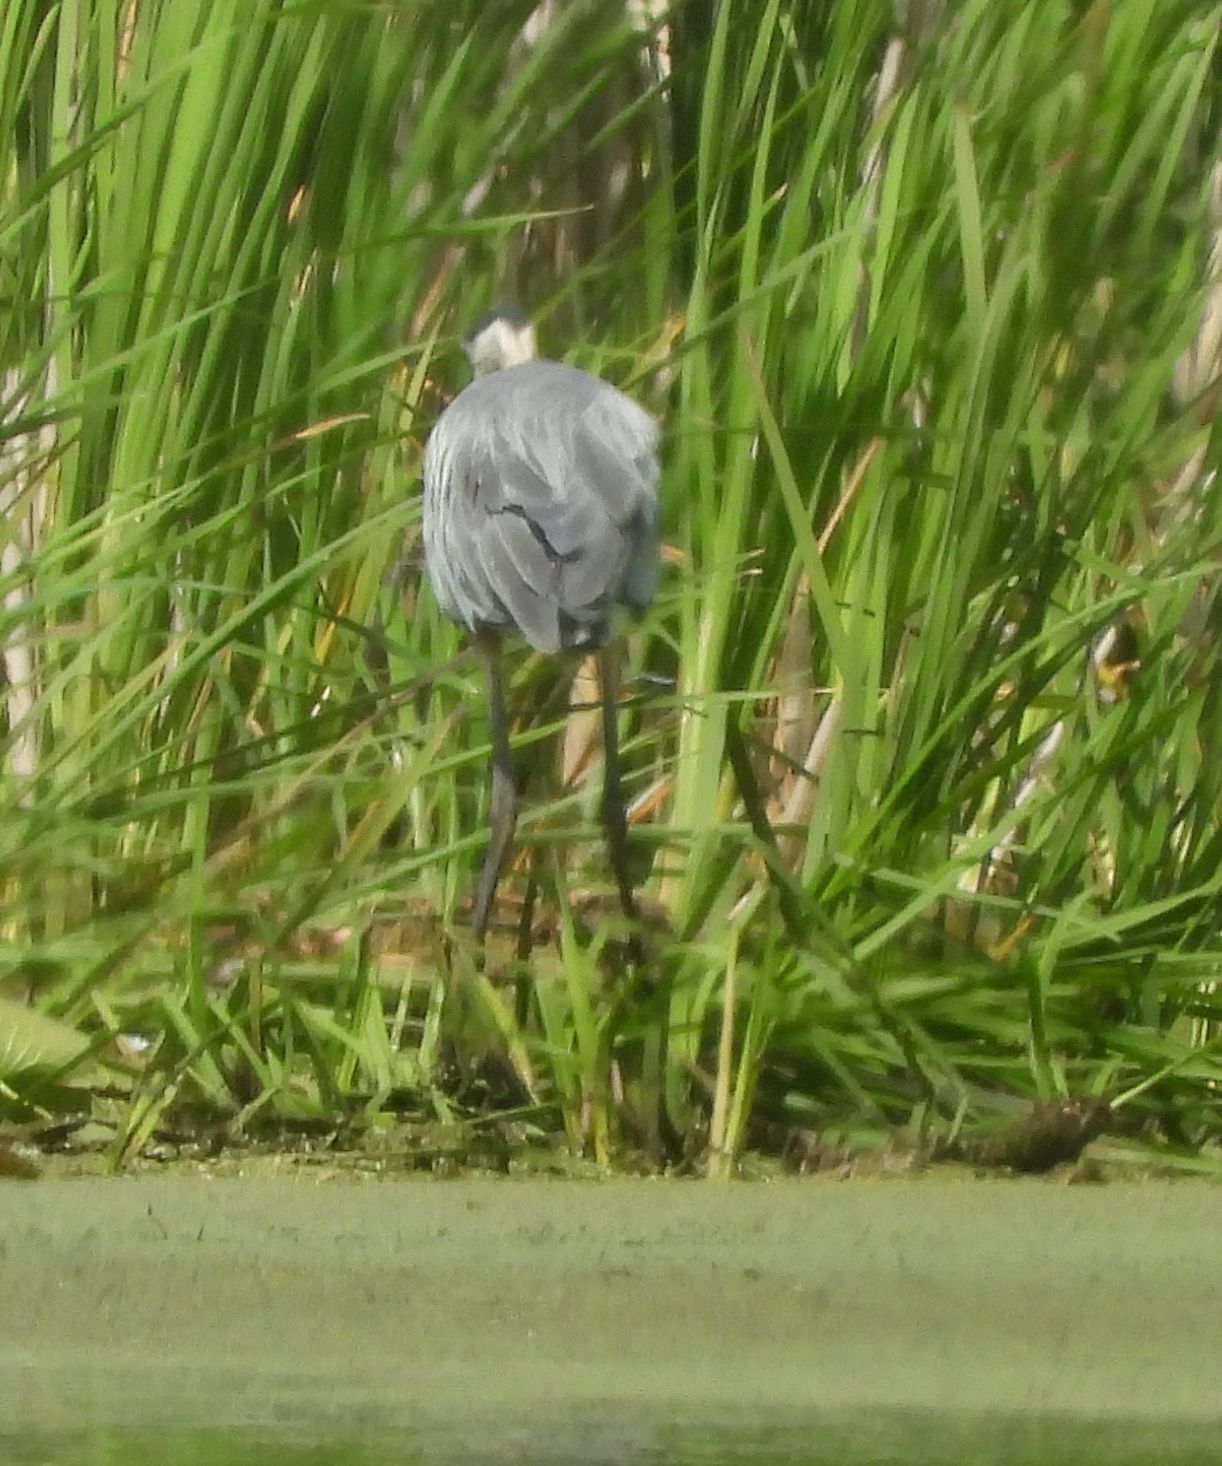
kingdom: Animalia
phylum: Chordata
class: Aves
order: Pelecaniformes
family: Ardeidae
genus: Ardea
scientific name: Ardea herodias
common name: Great blue heron
